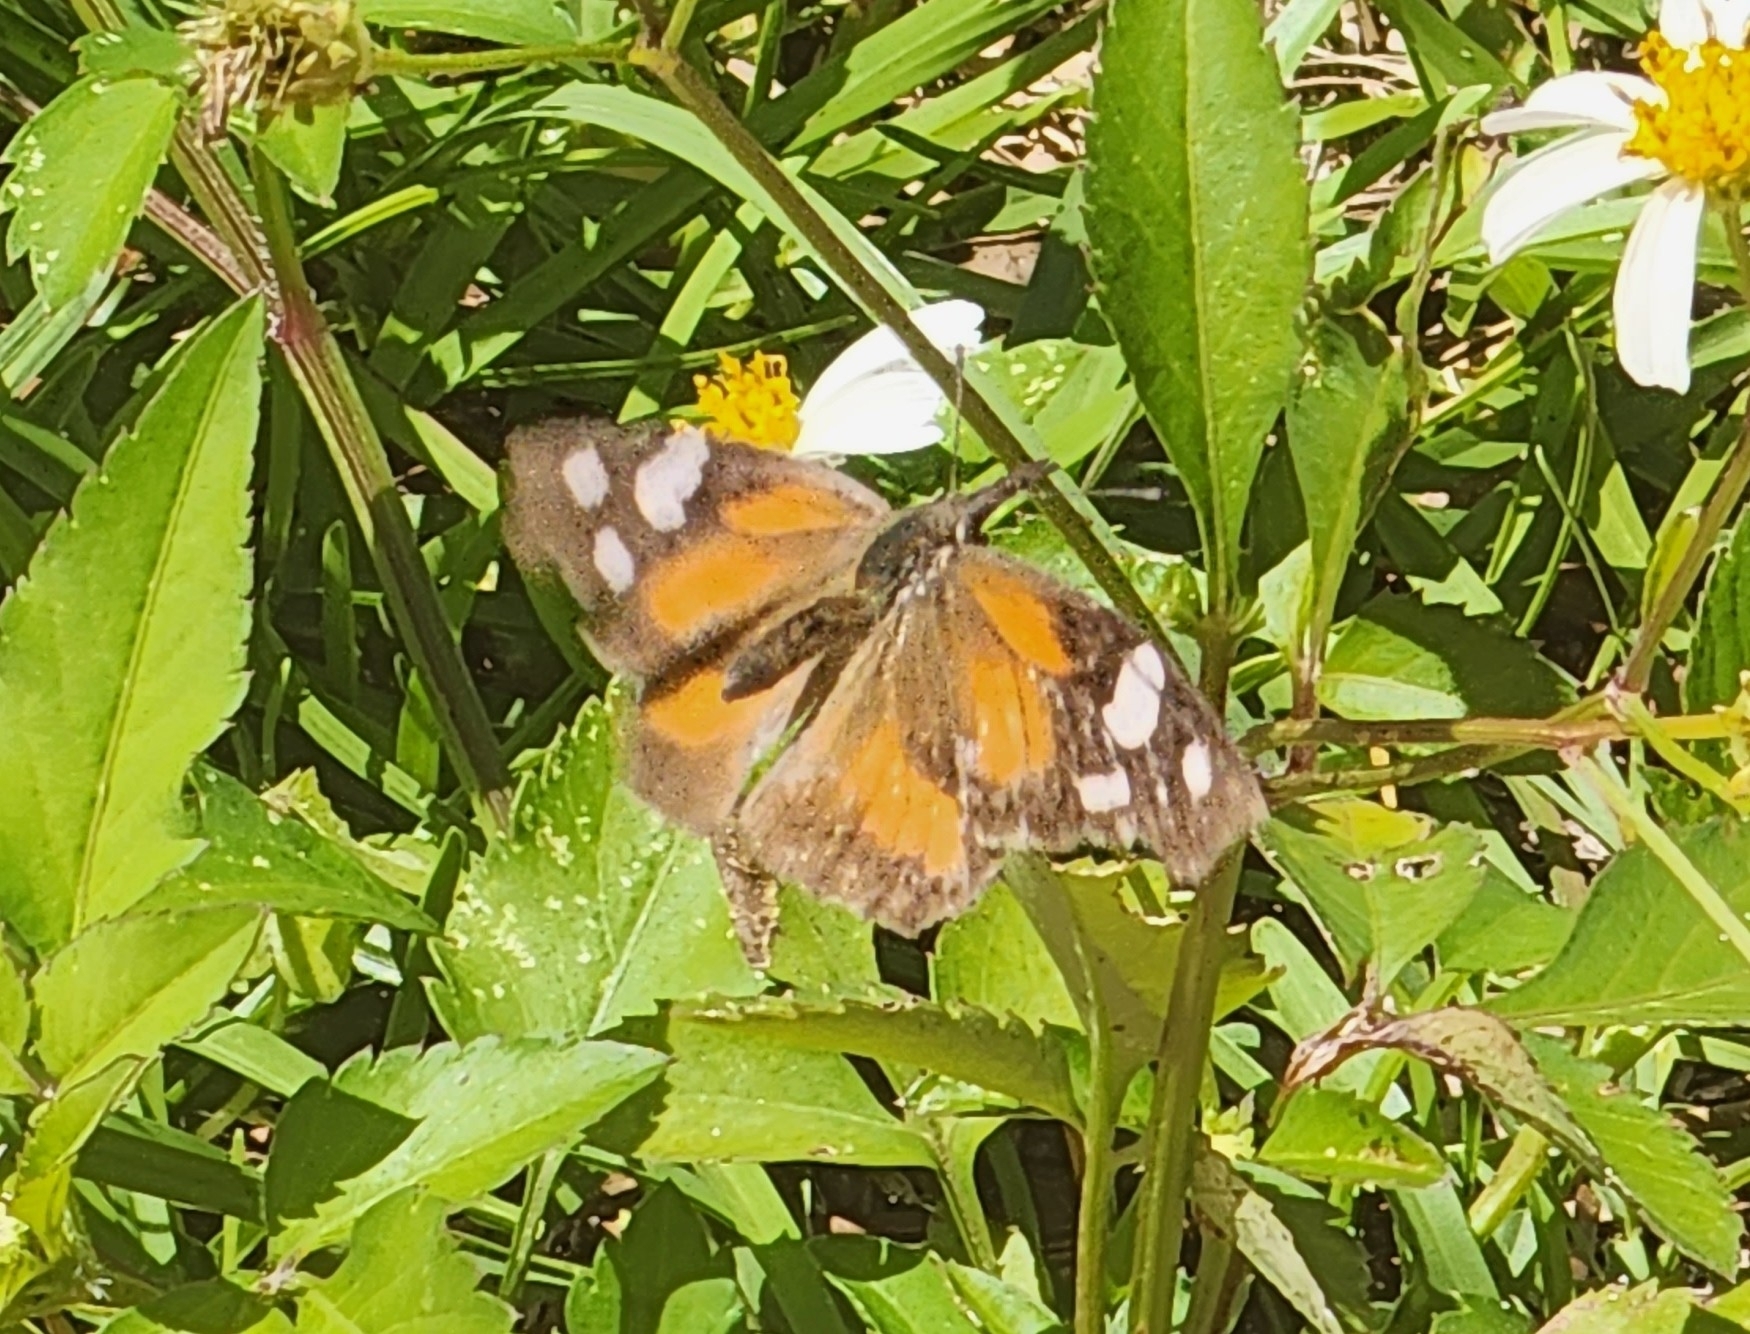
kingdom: Animalia
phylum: Arthropoda
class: Insecta
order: Lepidoptera
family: Nymphalidae
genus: Libytheana
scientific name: Libytheana carinenta
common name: American snout
